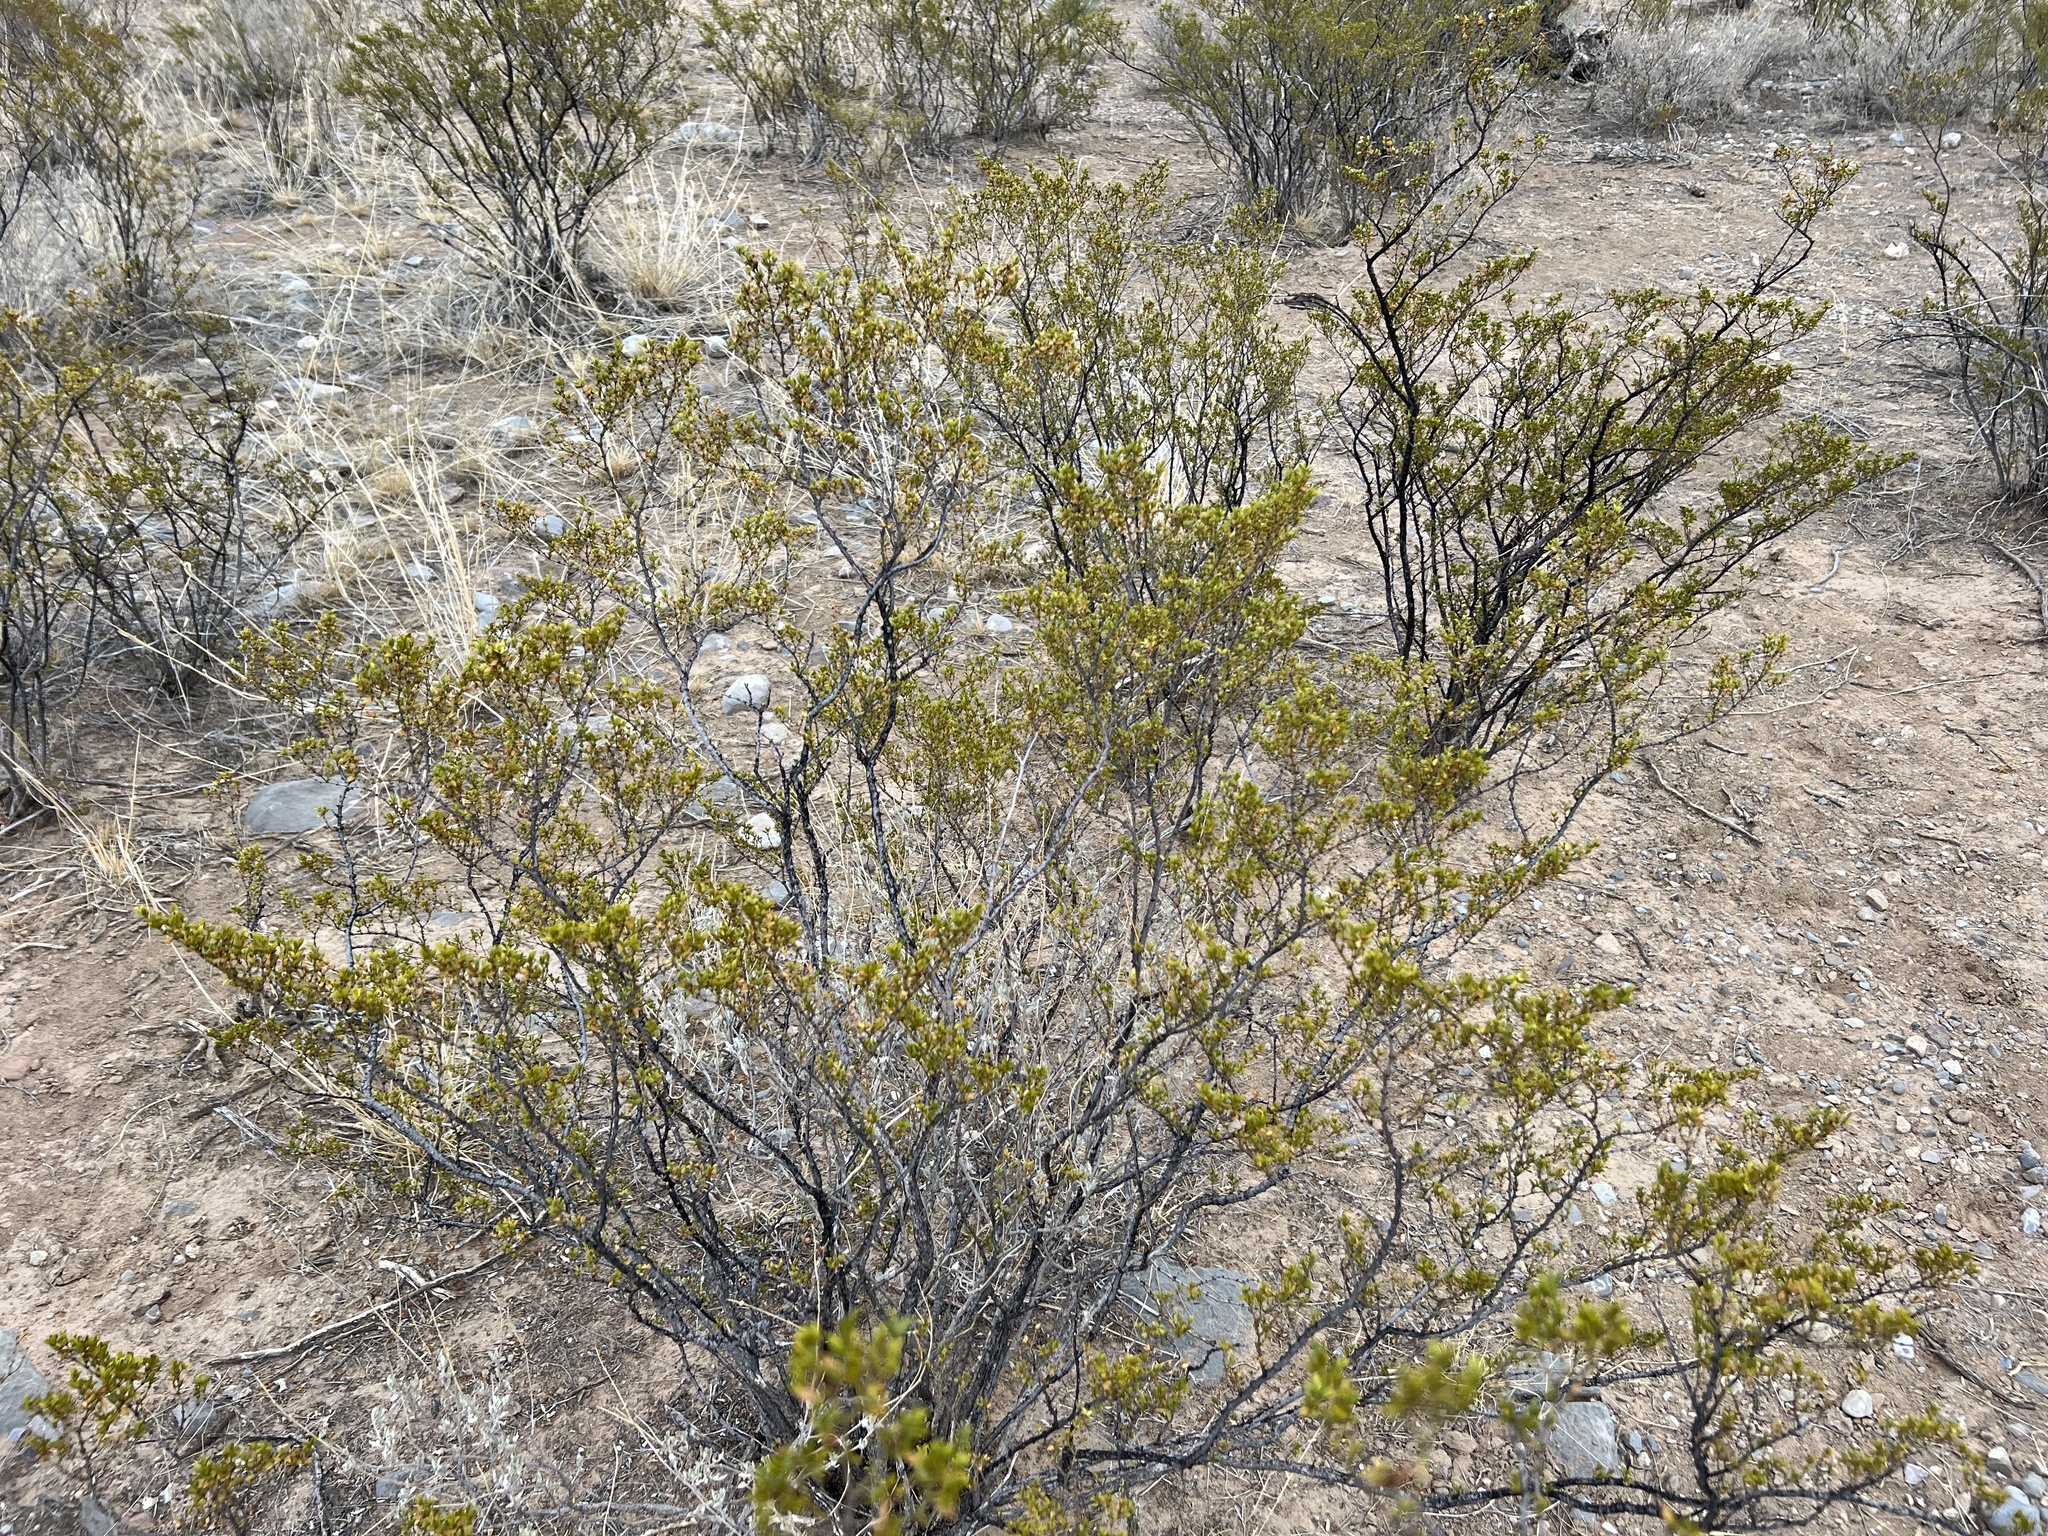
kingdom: Plantae
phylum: Tracheophyta
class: Magnoliopsida
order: Zygophyllales
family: Zygophyllaceae
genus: Larrea
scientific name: Larrea tridentata
